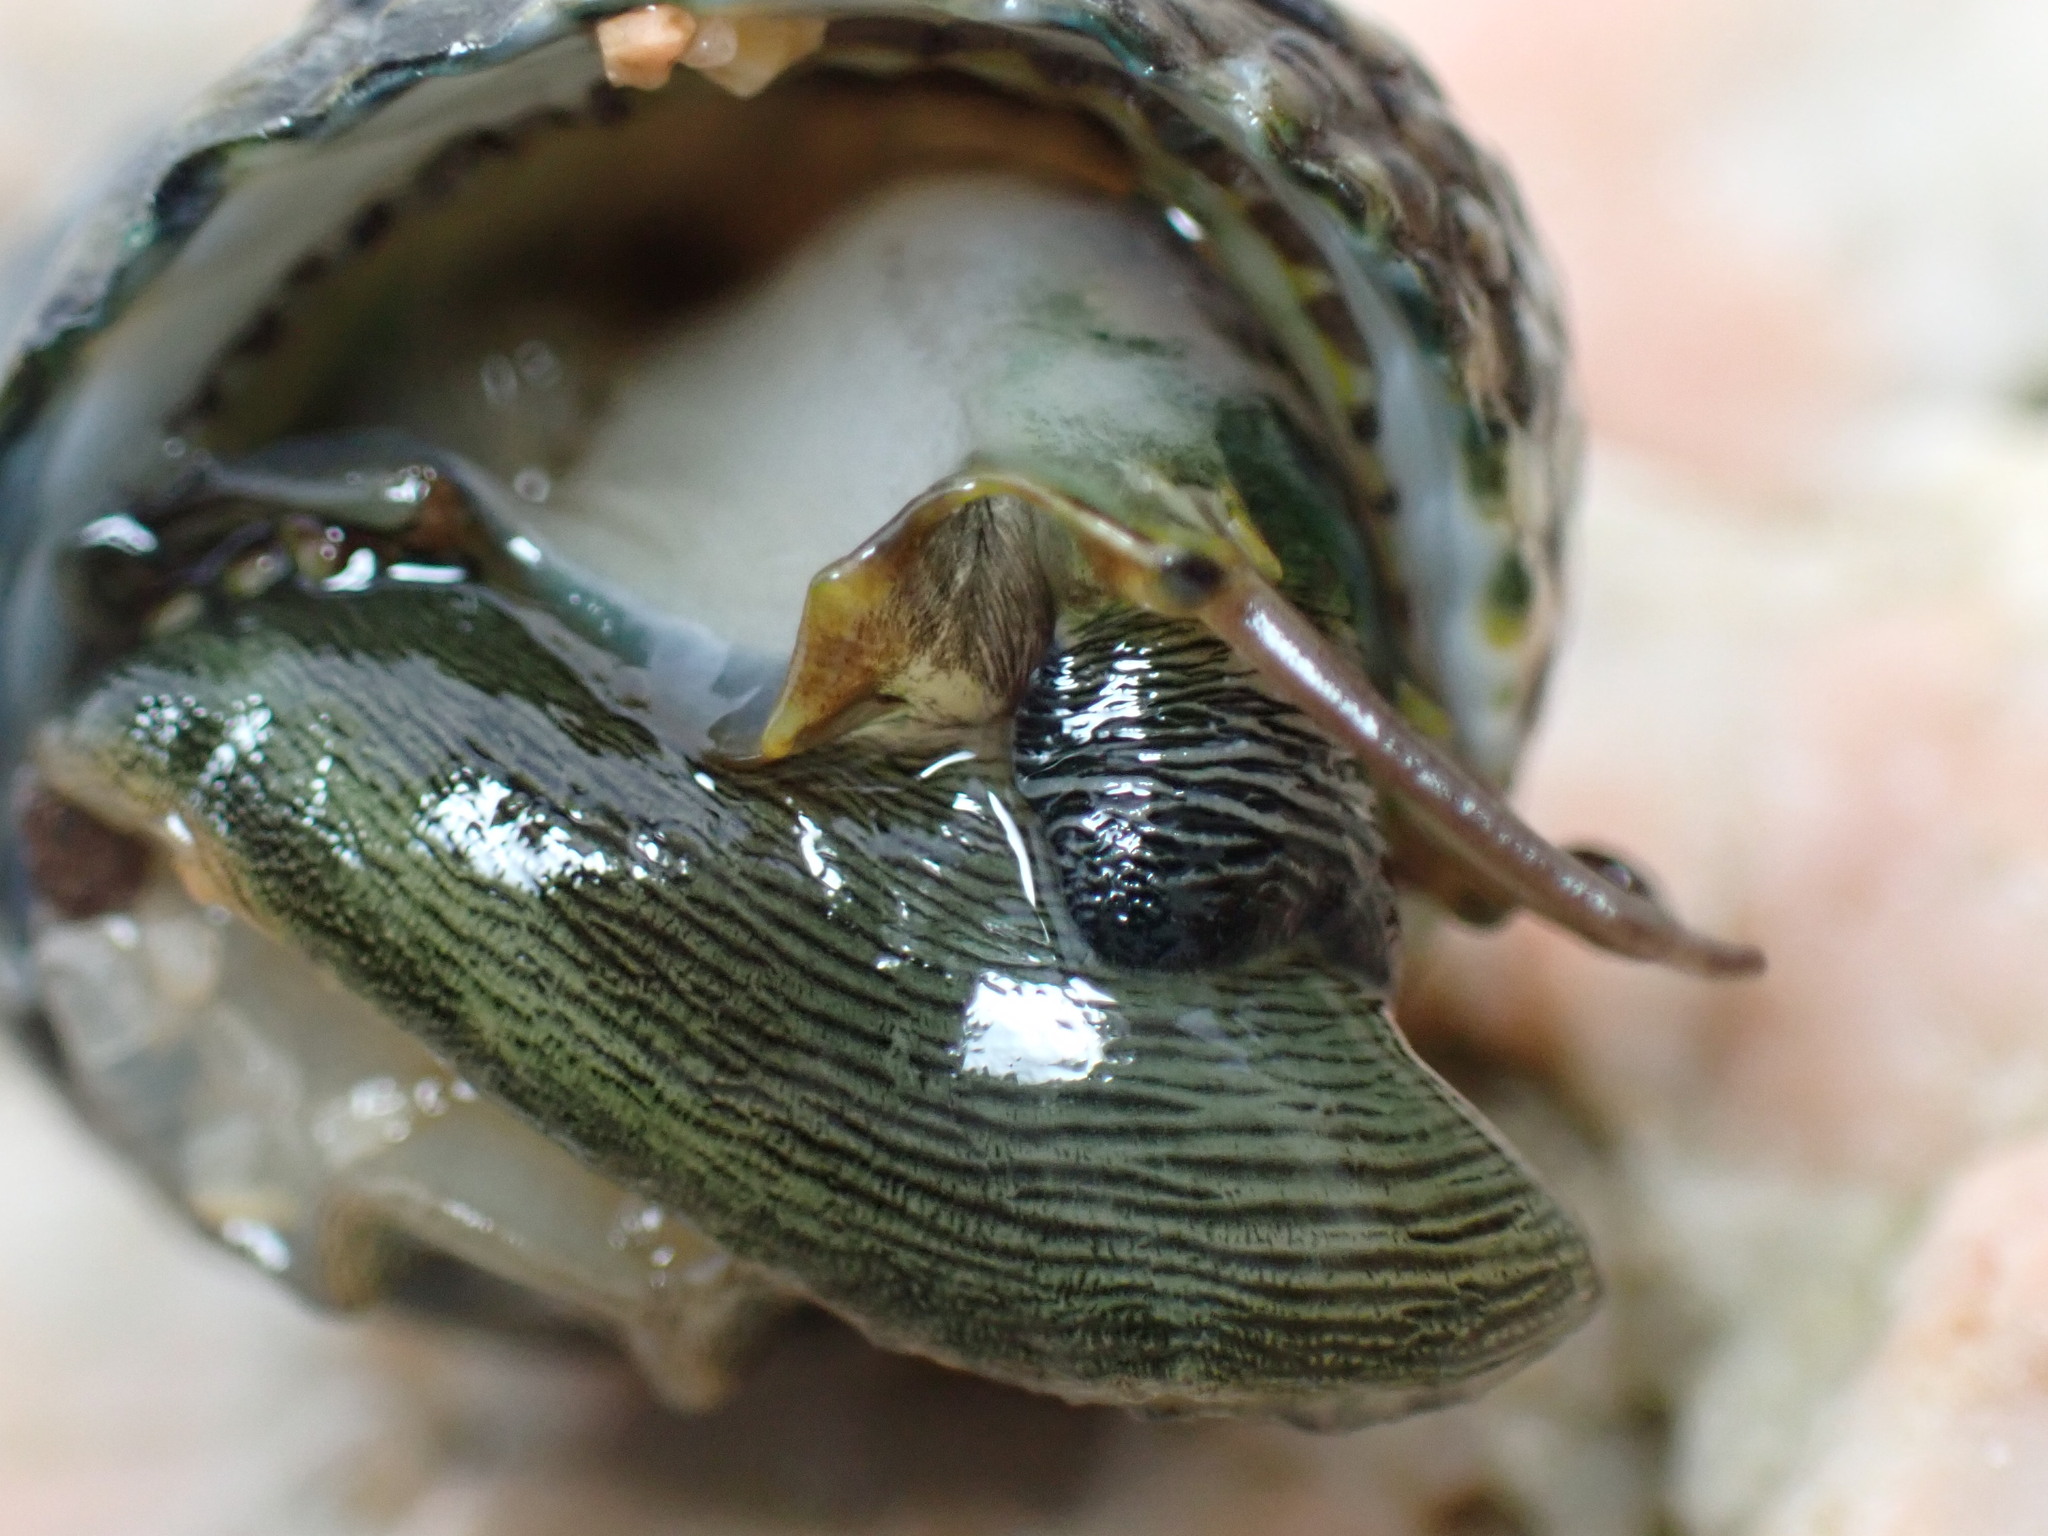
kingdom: Animalia
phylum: Mollusca
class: Gastropoda
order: Trochida
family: Trochidae
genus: Monodonta
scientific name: Monodonta labio
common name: Labio
